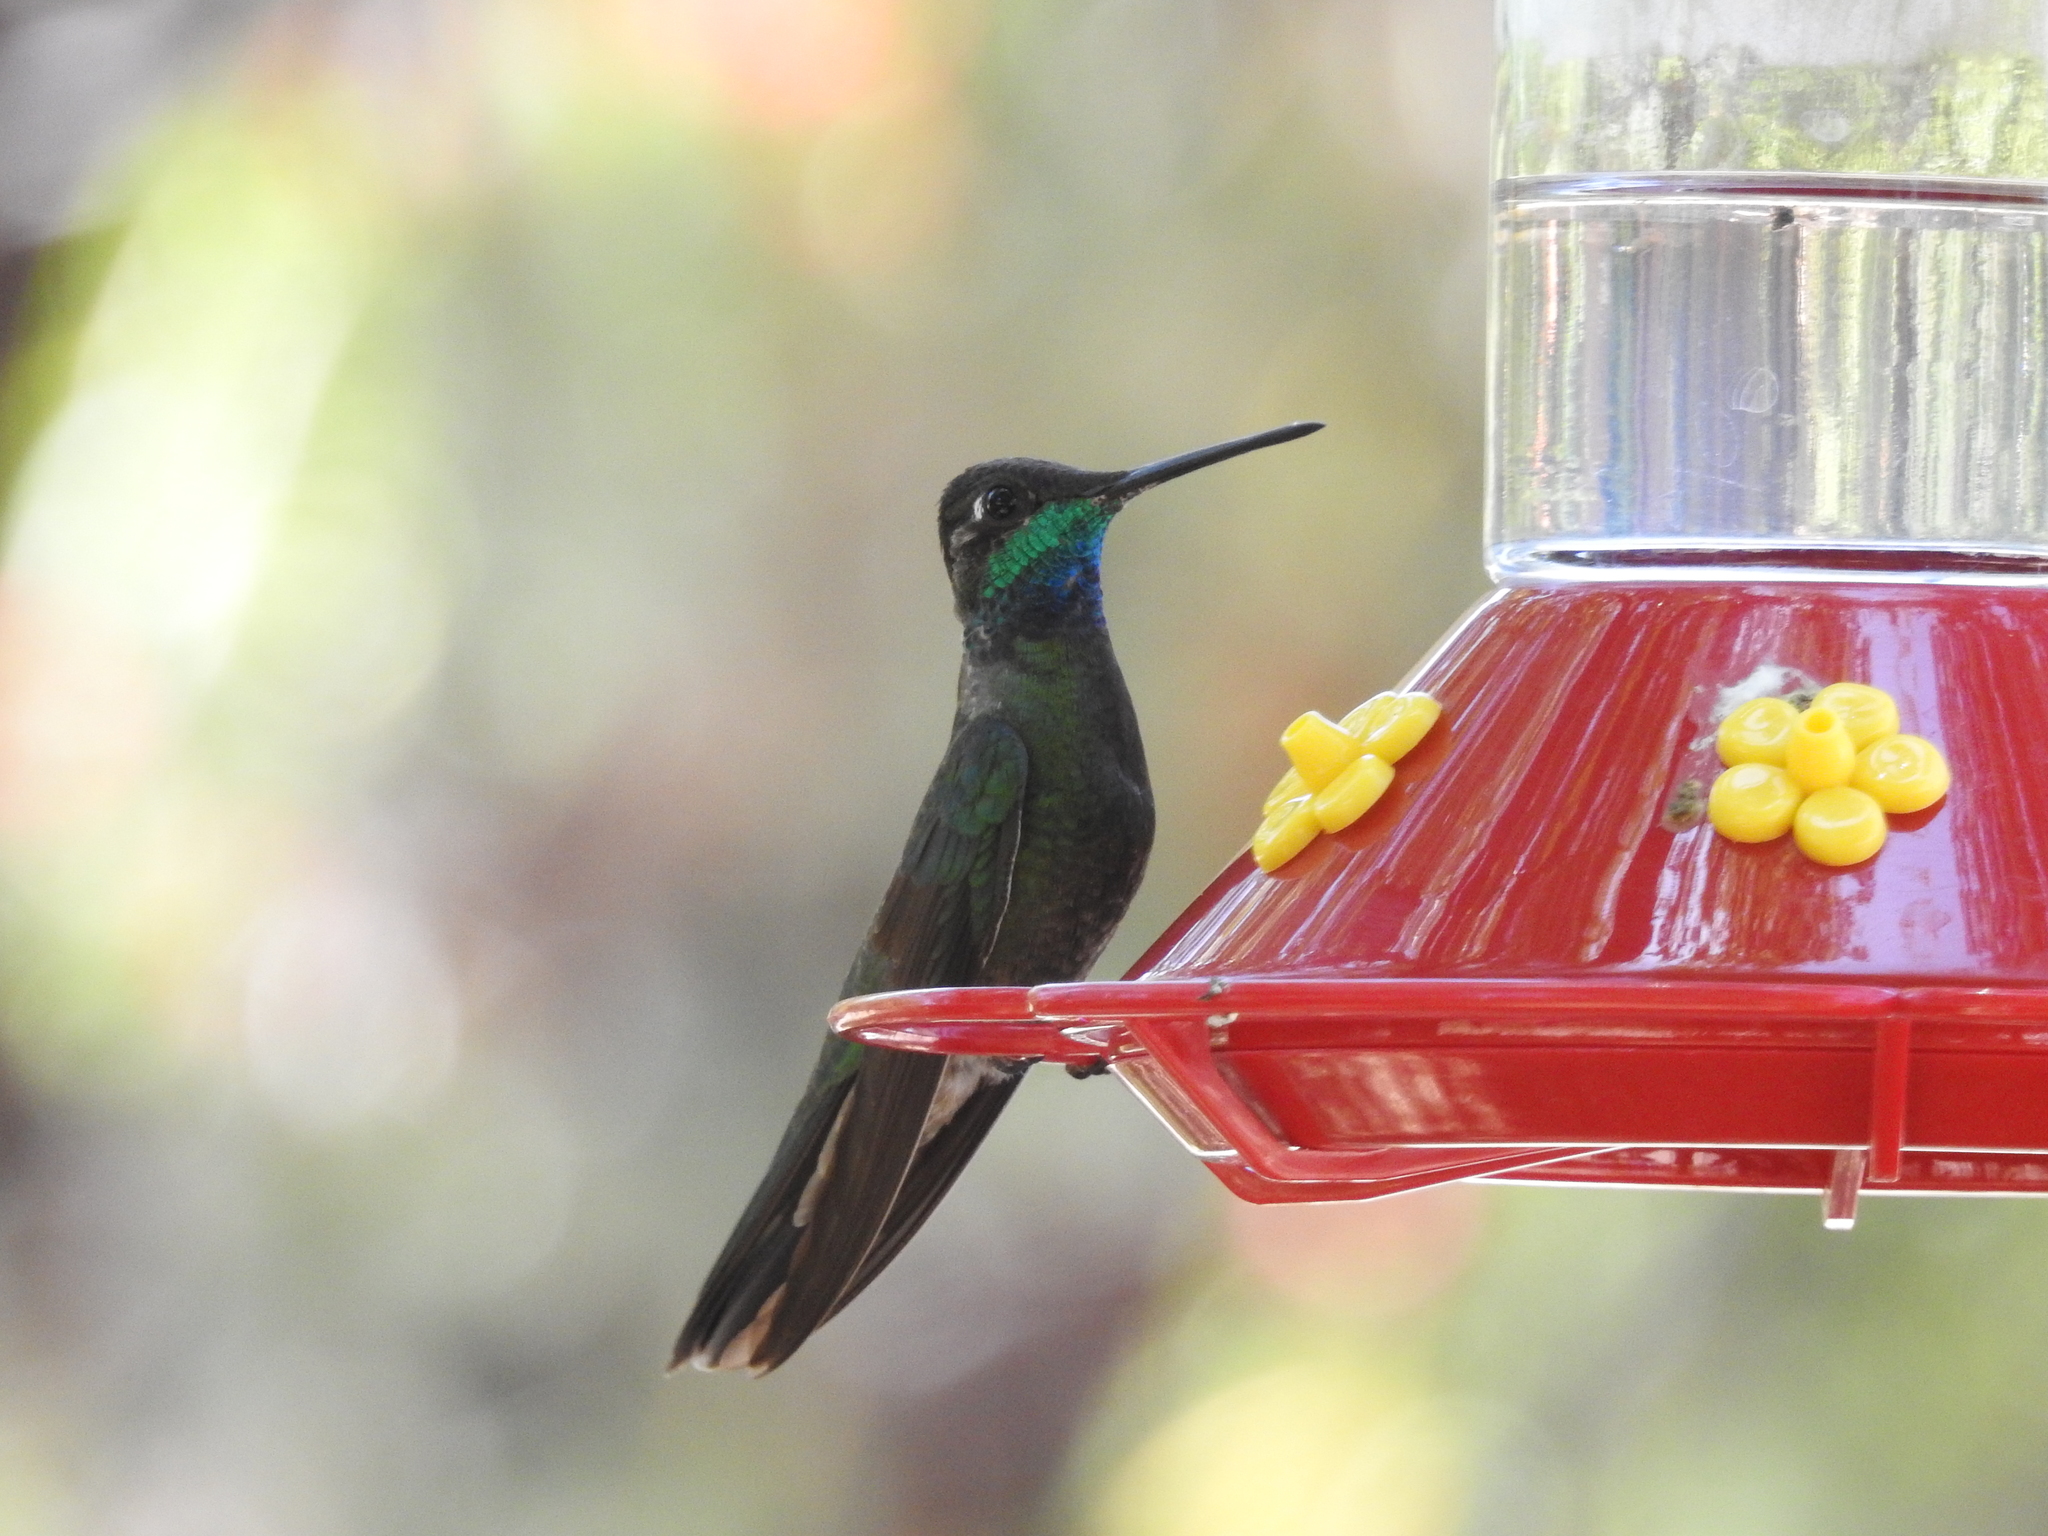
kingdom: Animalia
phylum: Chordata
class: Aves
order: Apodiformes
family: Trochilidae
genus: Eugenes
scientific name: Eugenes fulgens
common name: Magnificent hummingbird
